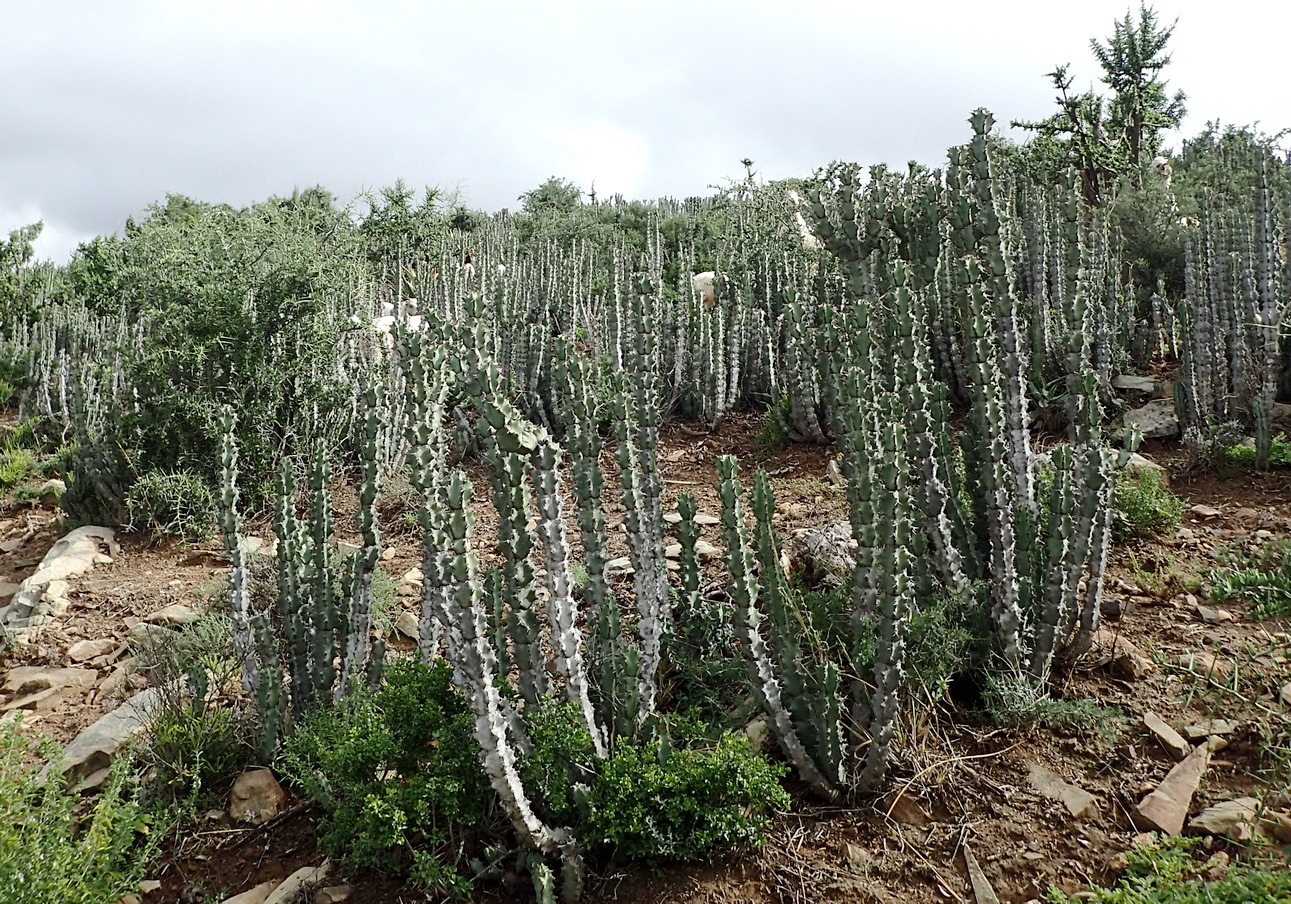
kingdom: Plantae
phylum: Tracheophyta
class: Magnoliopsida
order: Malpighiales
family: Euphorbiaceae
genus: Euphorbia
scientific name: Euphorbia radyeri
